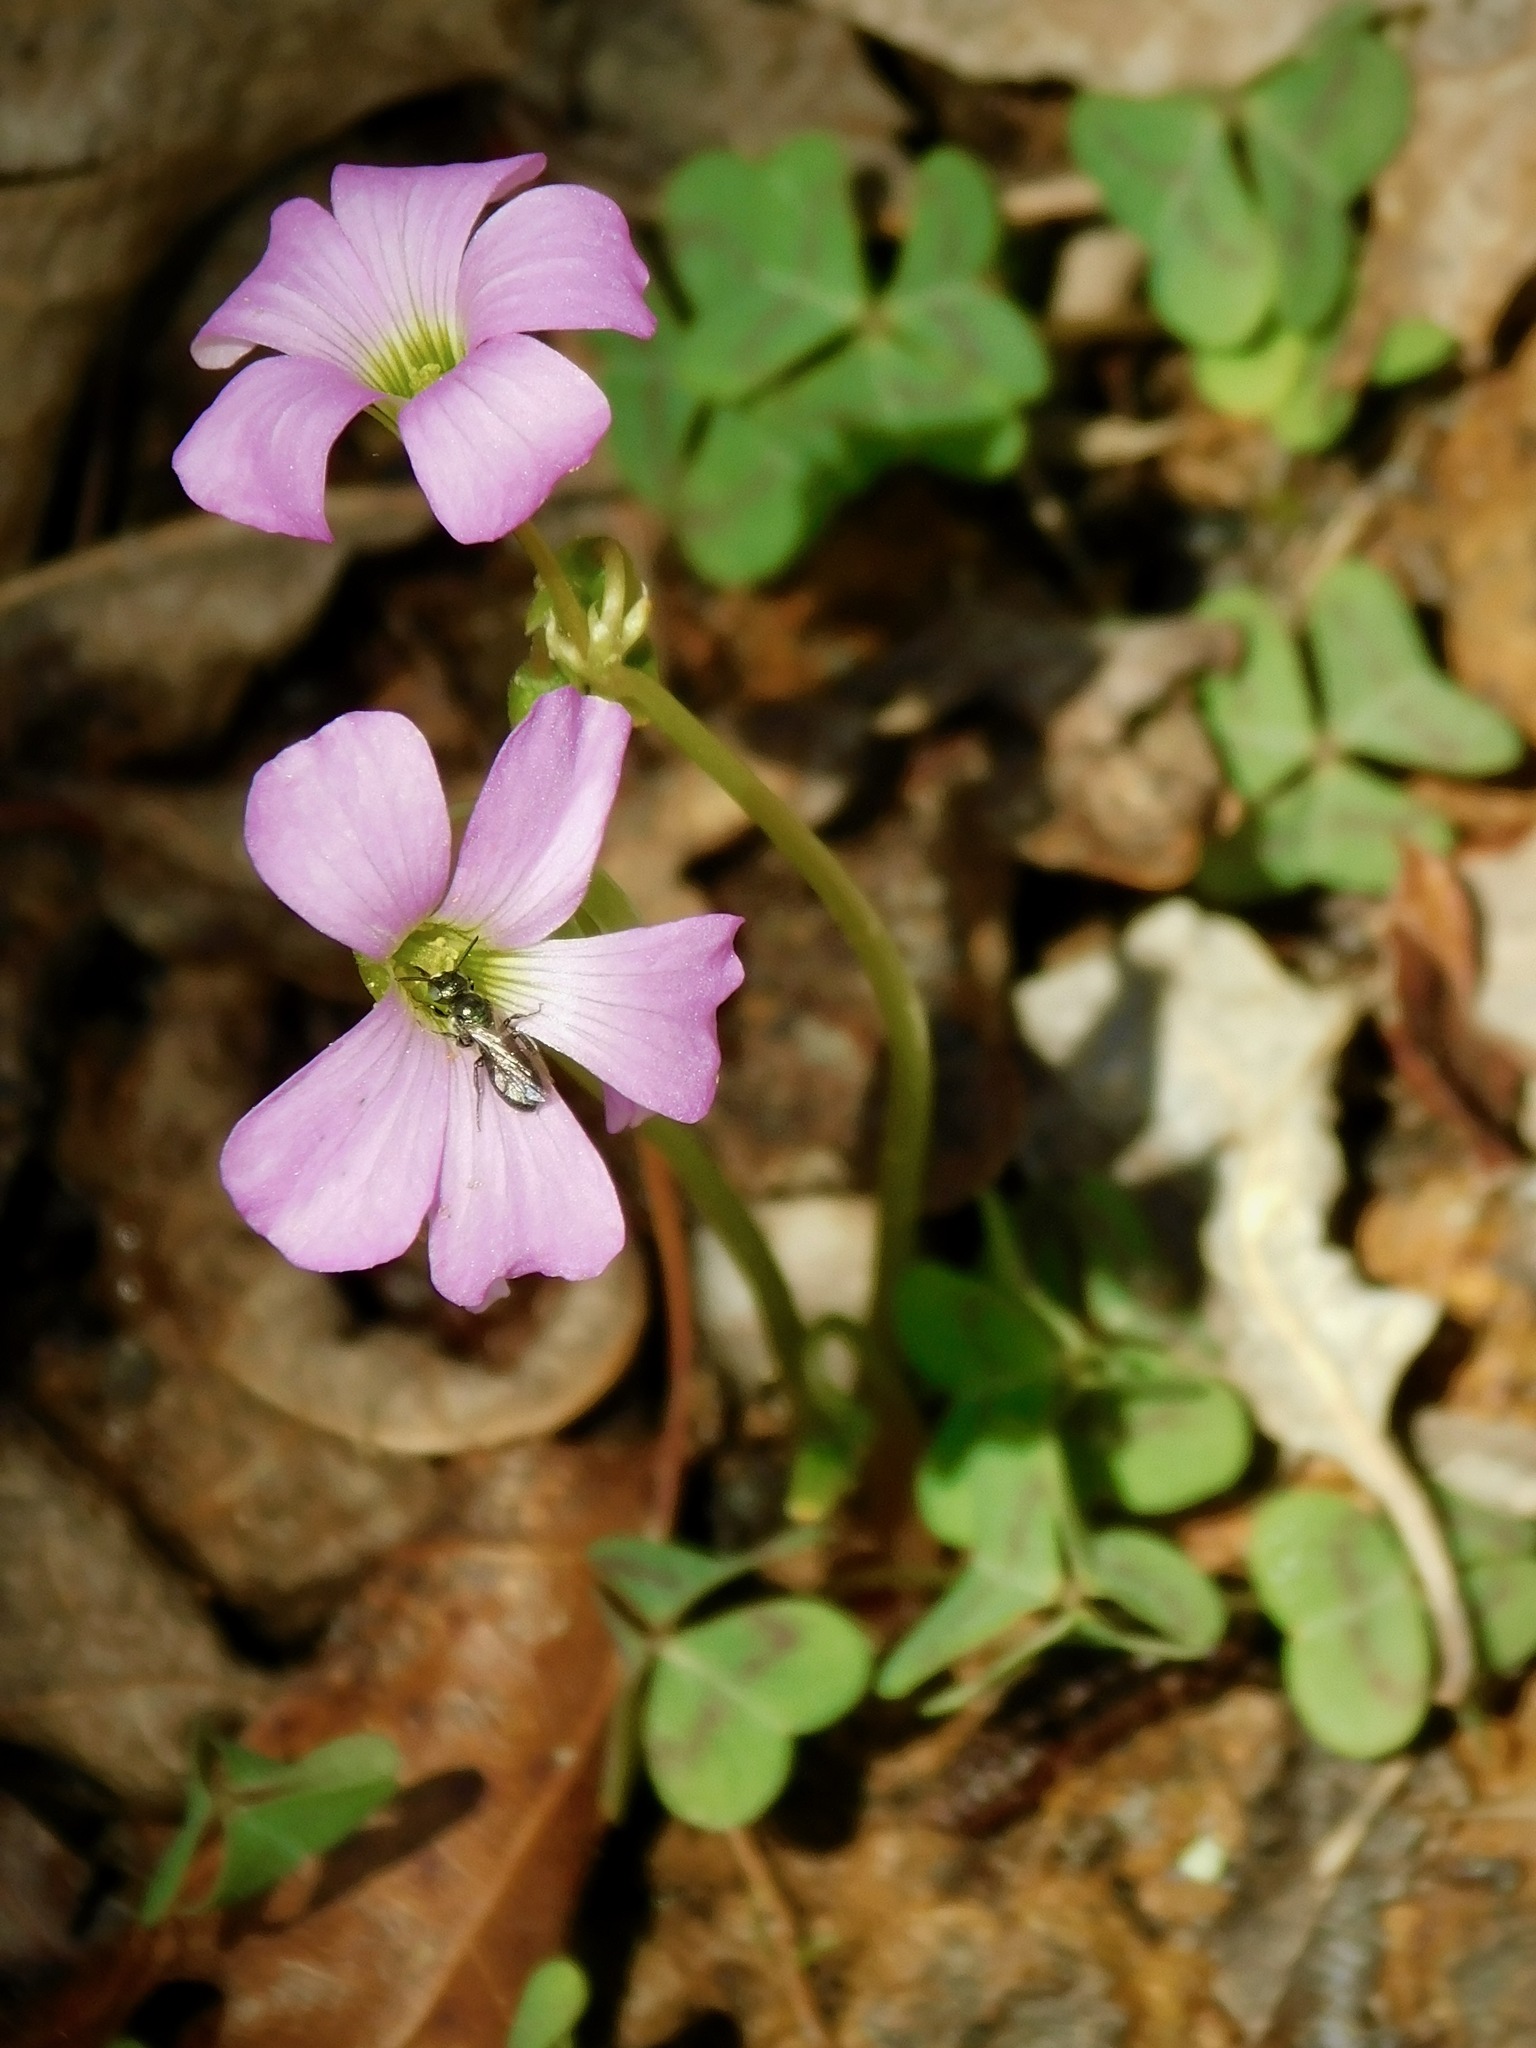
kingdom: Plantae
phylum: Tracheophyta
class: Magnoliopsida
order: Oxalidales
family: Oxalidaceae
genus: Oxalis
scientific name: Oxalis violacea
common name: Violet wood-sorrel
